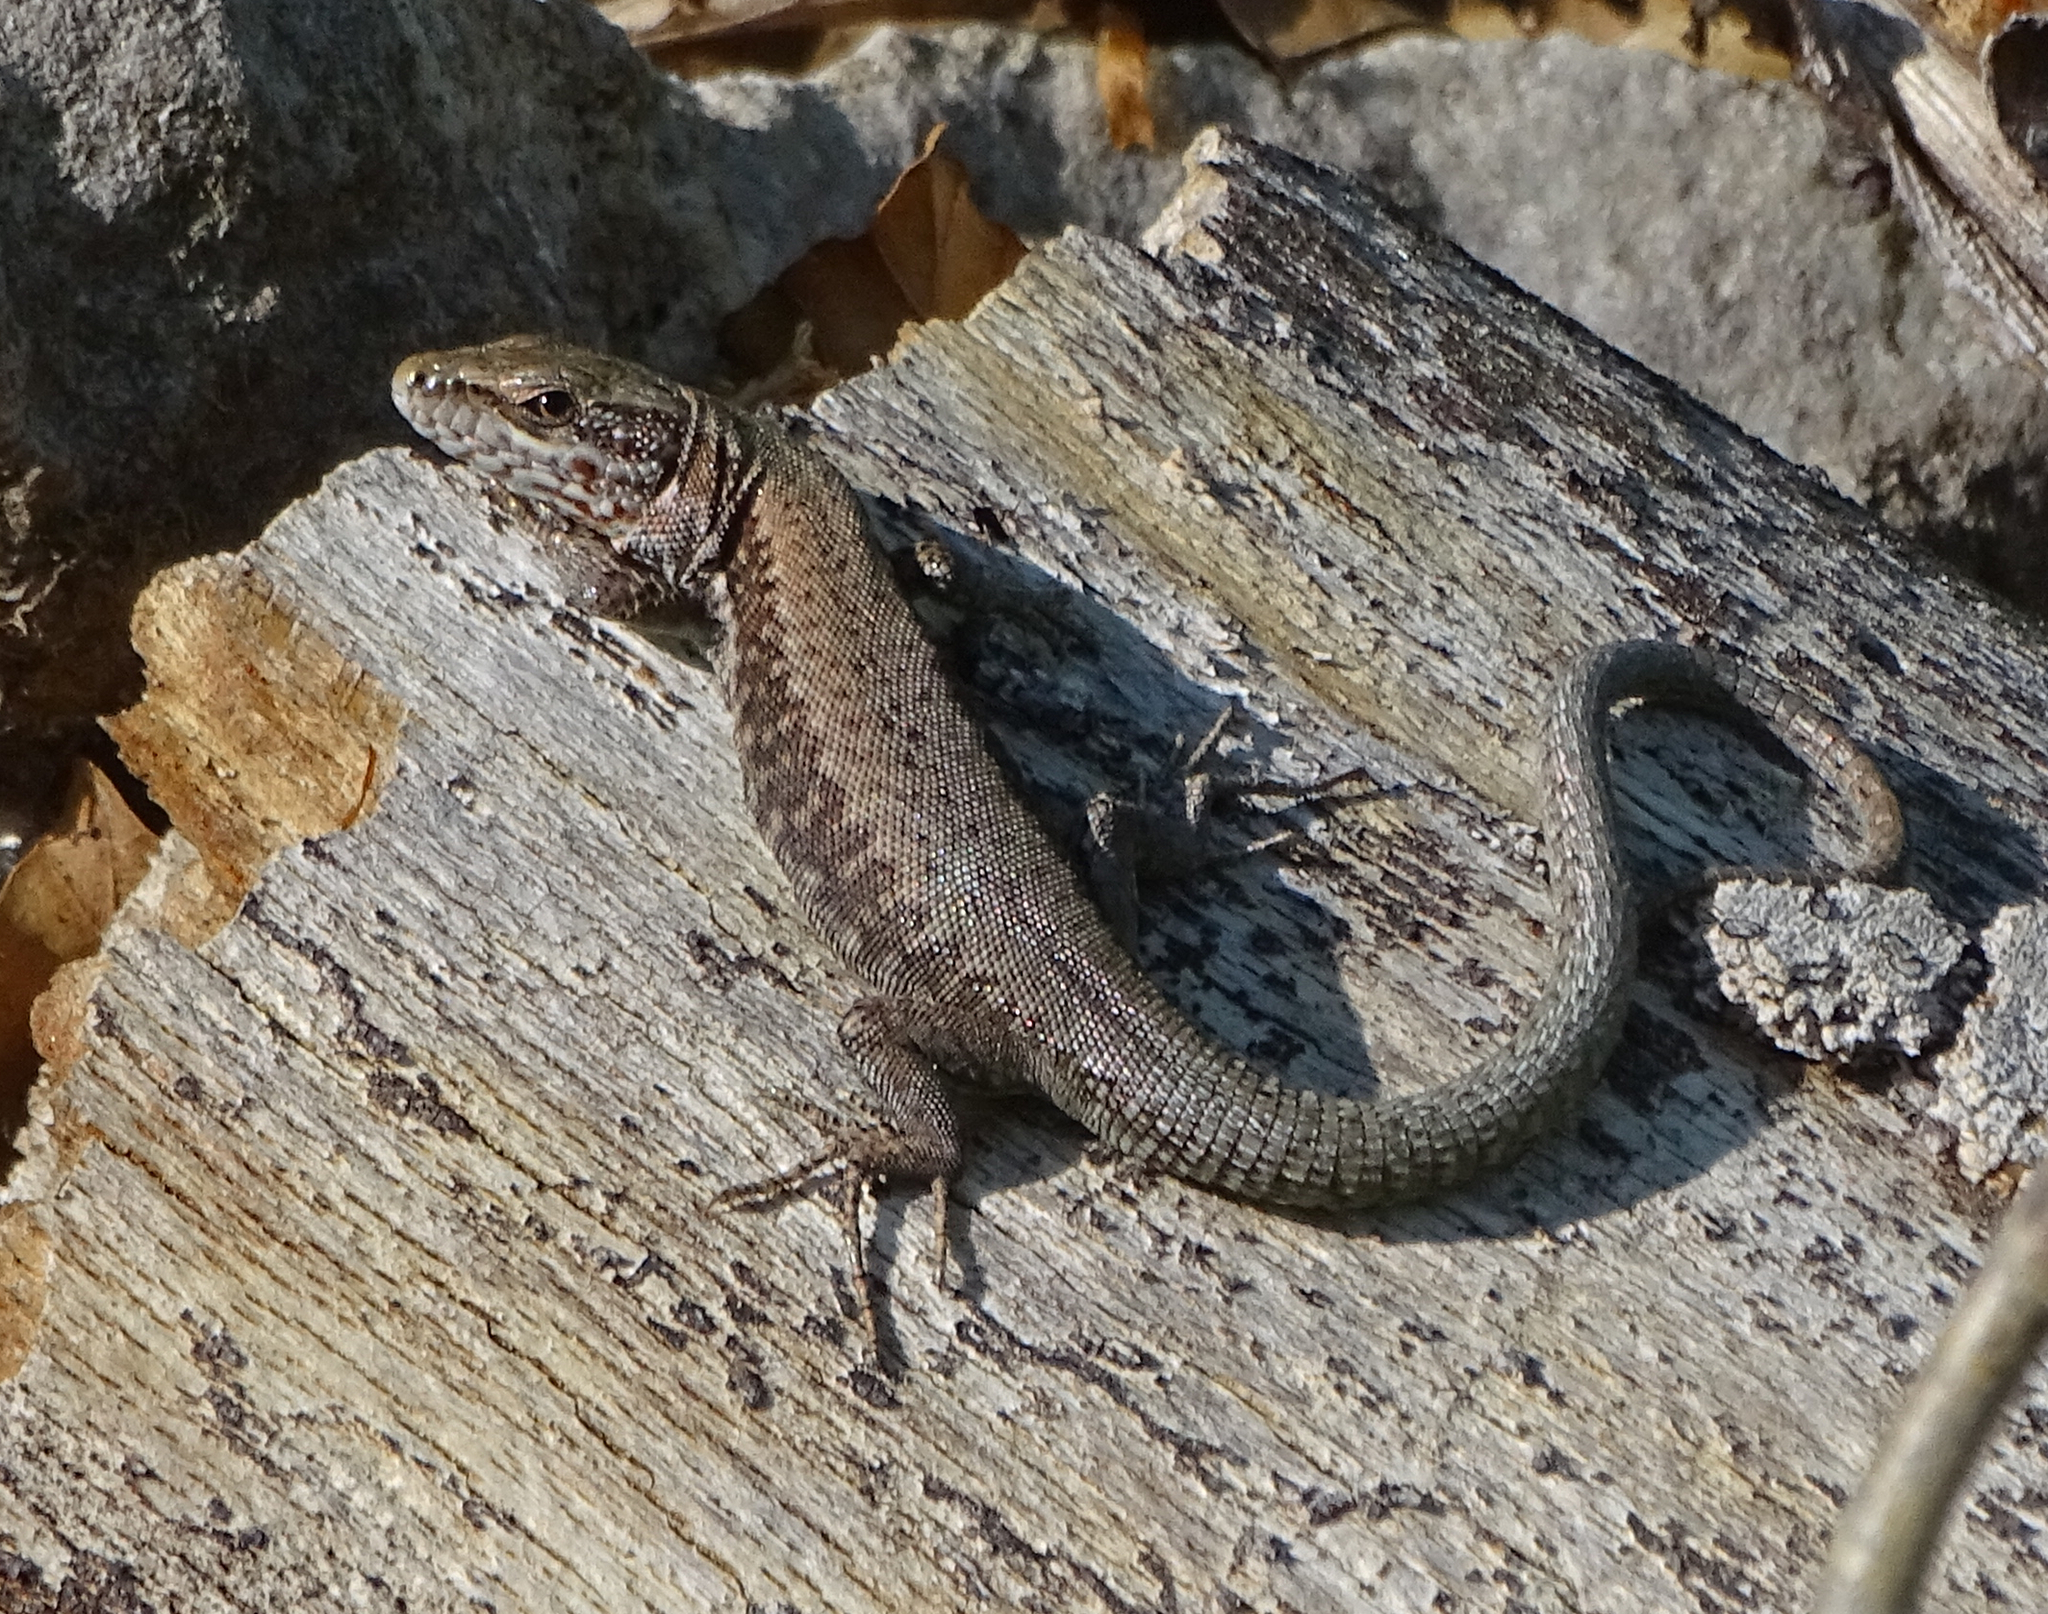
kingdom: Animalia
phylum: Chordata
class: Squamata
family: Lacertidae
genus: Podarcis
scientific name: Podarcis muralis
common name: Common wall lizard
